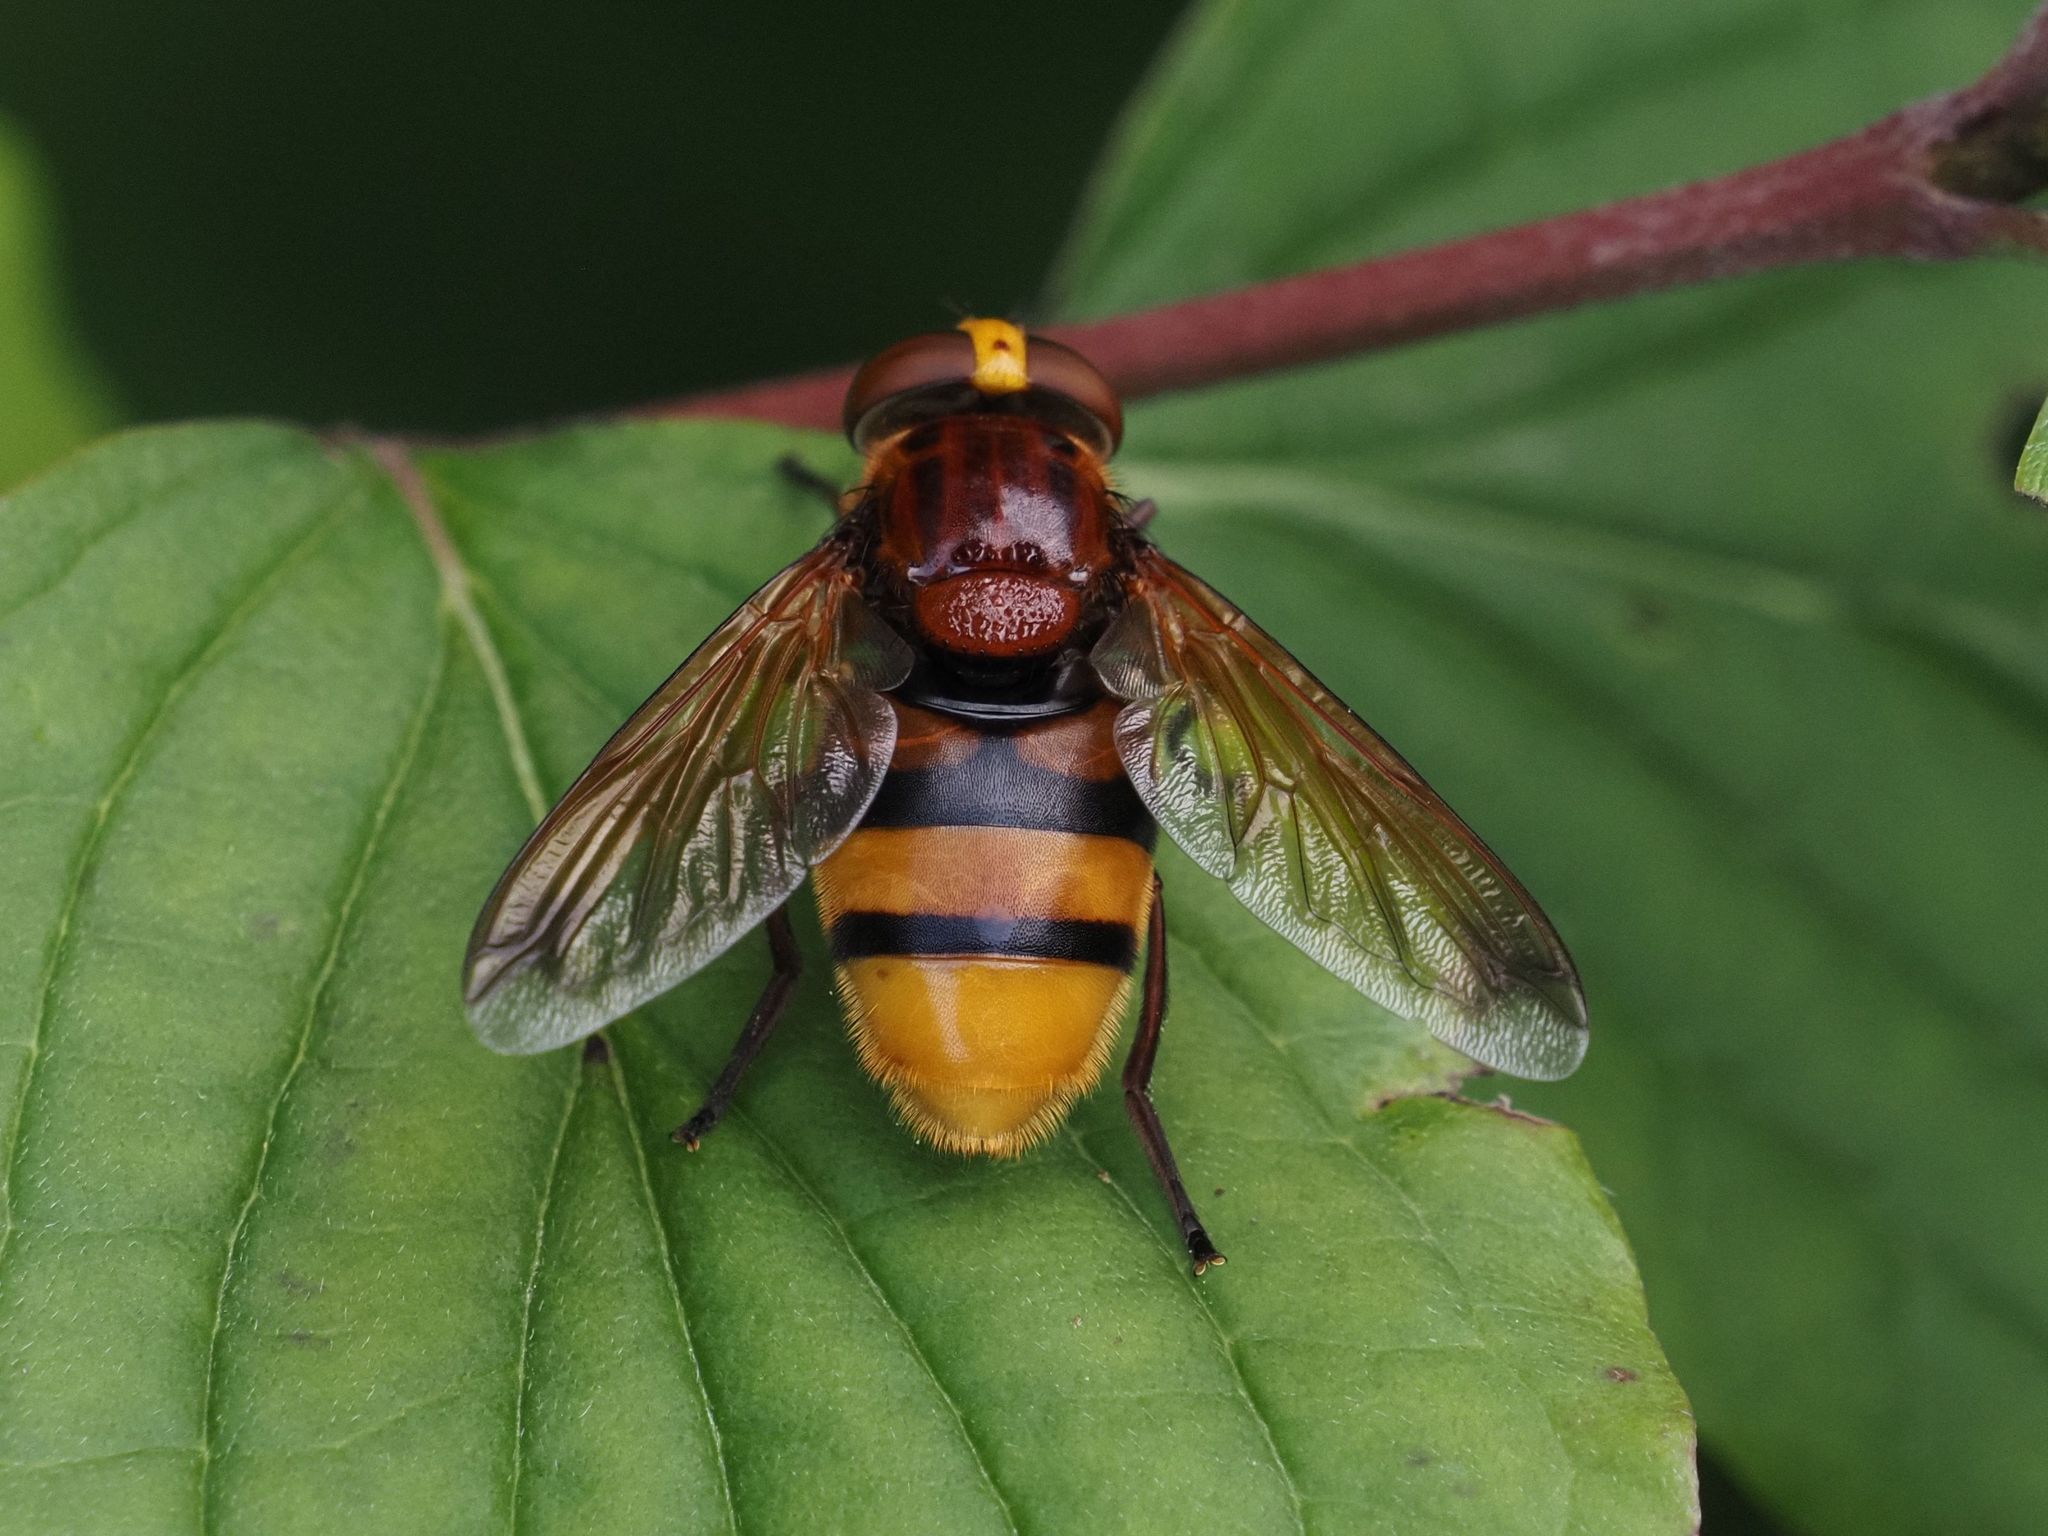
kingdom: Animalia
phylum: Arthropoda
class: Insecta
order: Diptera
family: Syrphidae
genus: Volucella
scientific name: Volucella zonaria
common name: Hornet hoverfly
